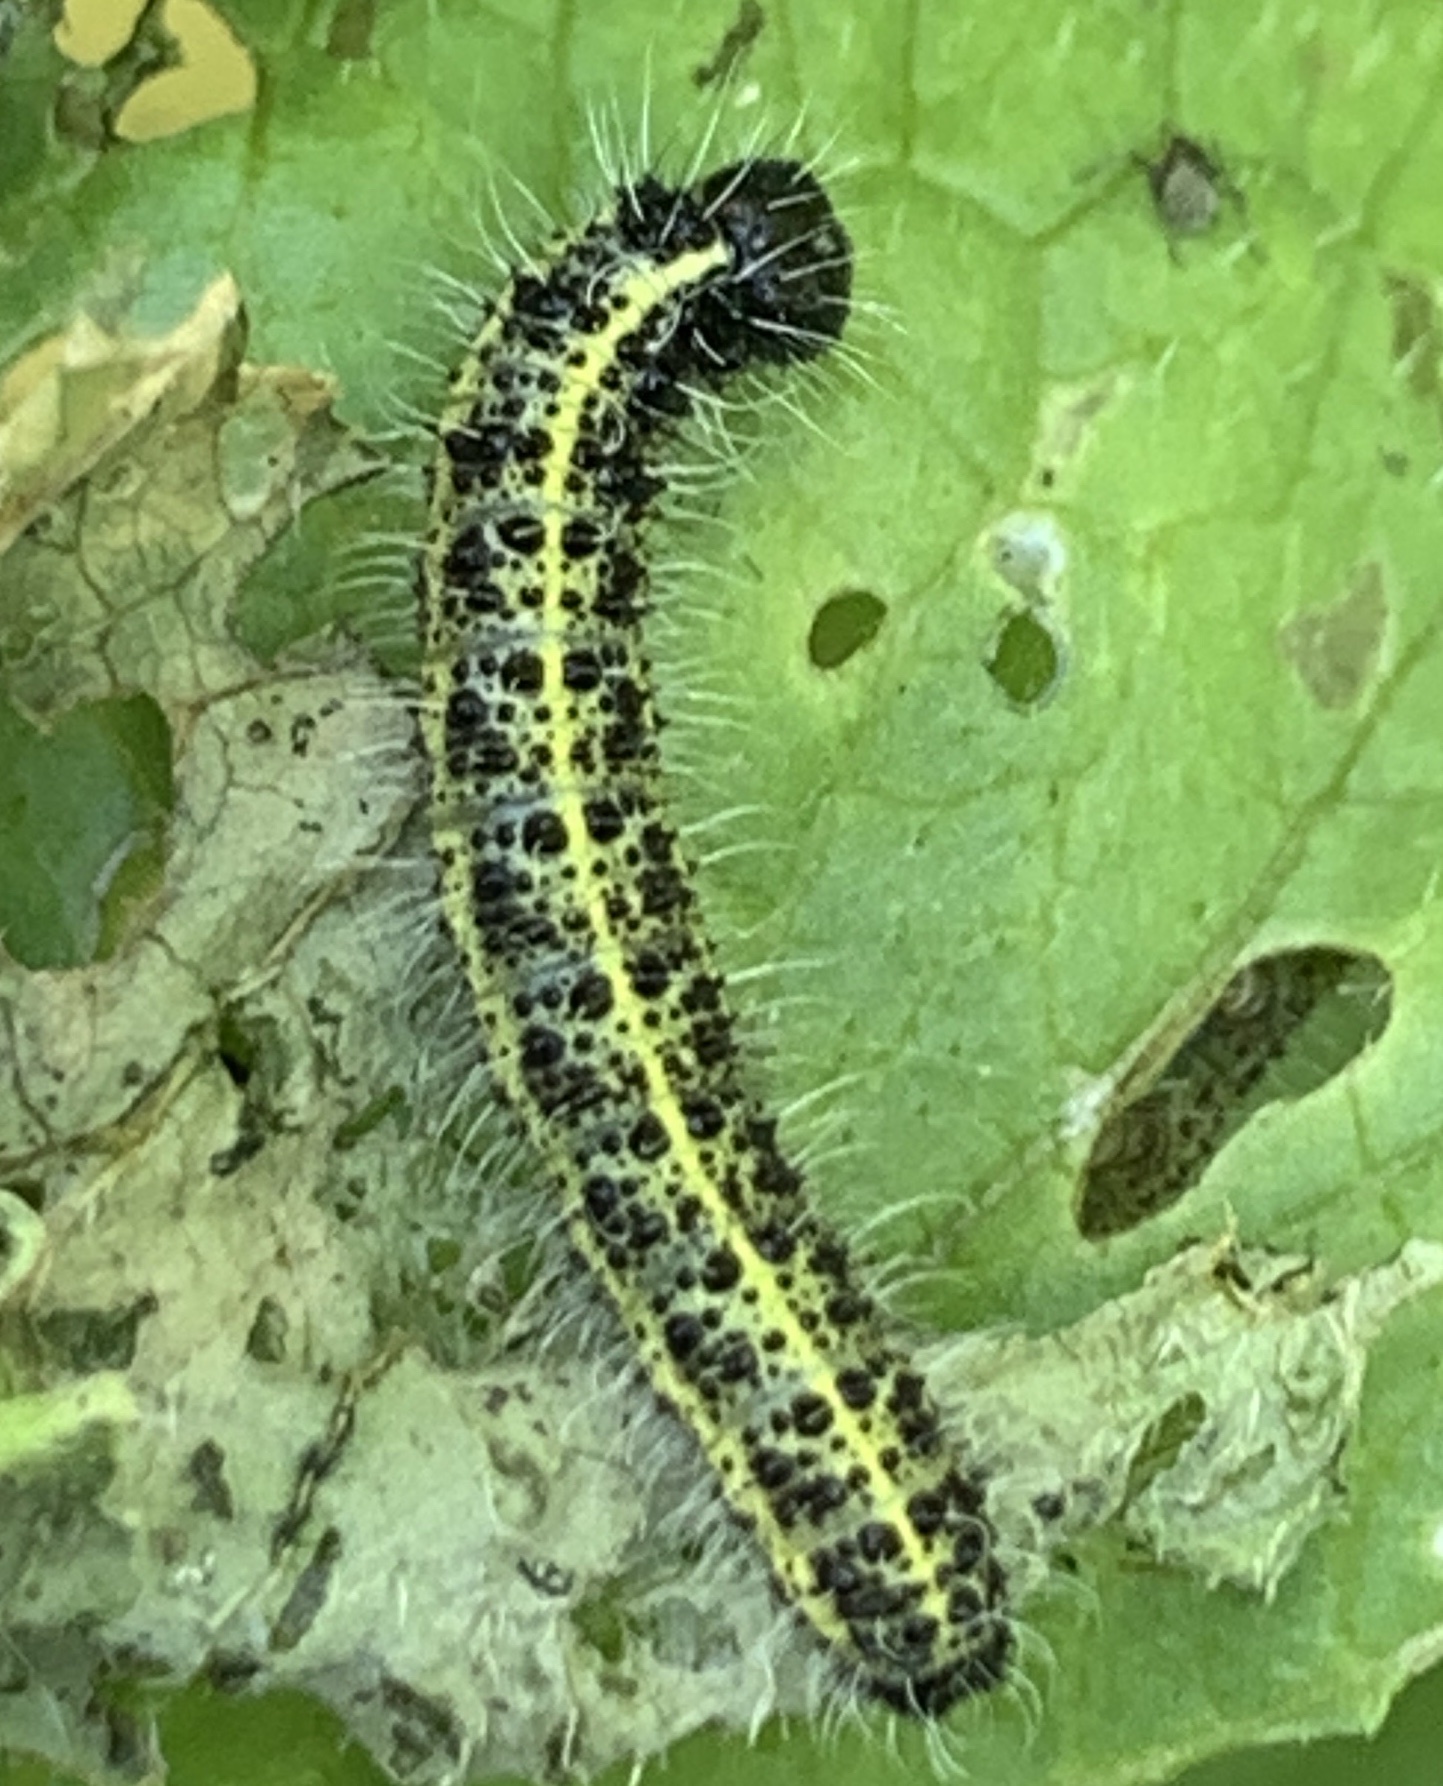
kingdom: Animalia
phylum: Arthropoda
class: Insecta
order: Lepidoptera
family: Pieridae
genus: Pieris
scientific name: Pieris brassicae
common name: Large white
